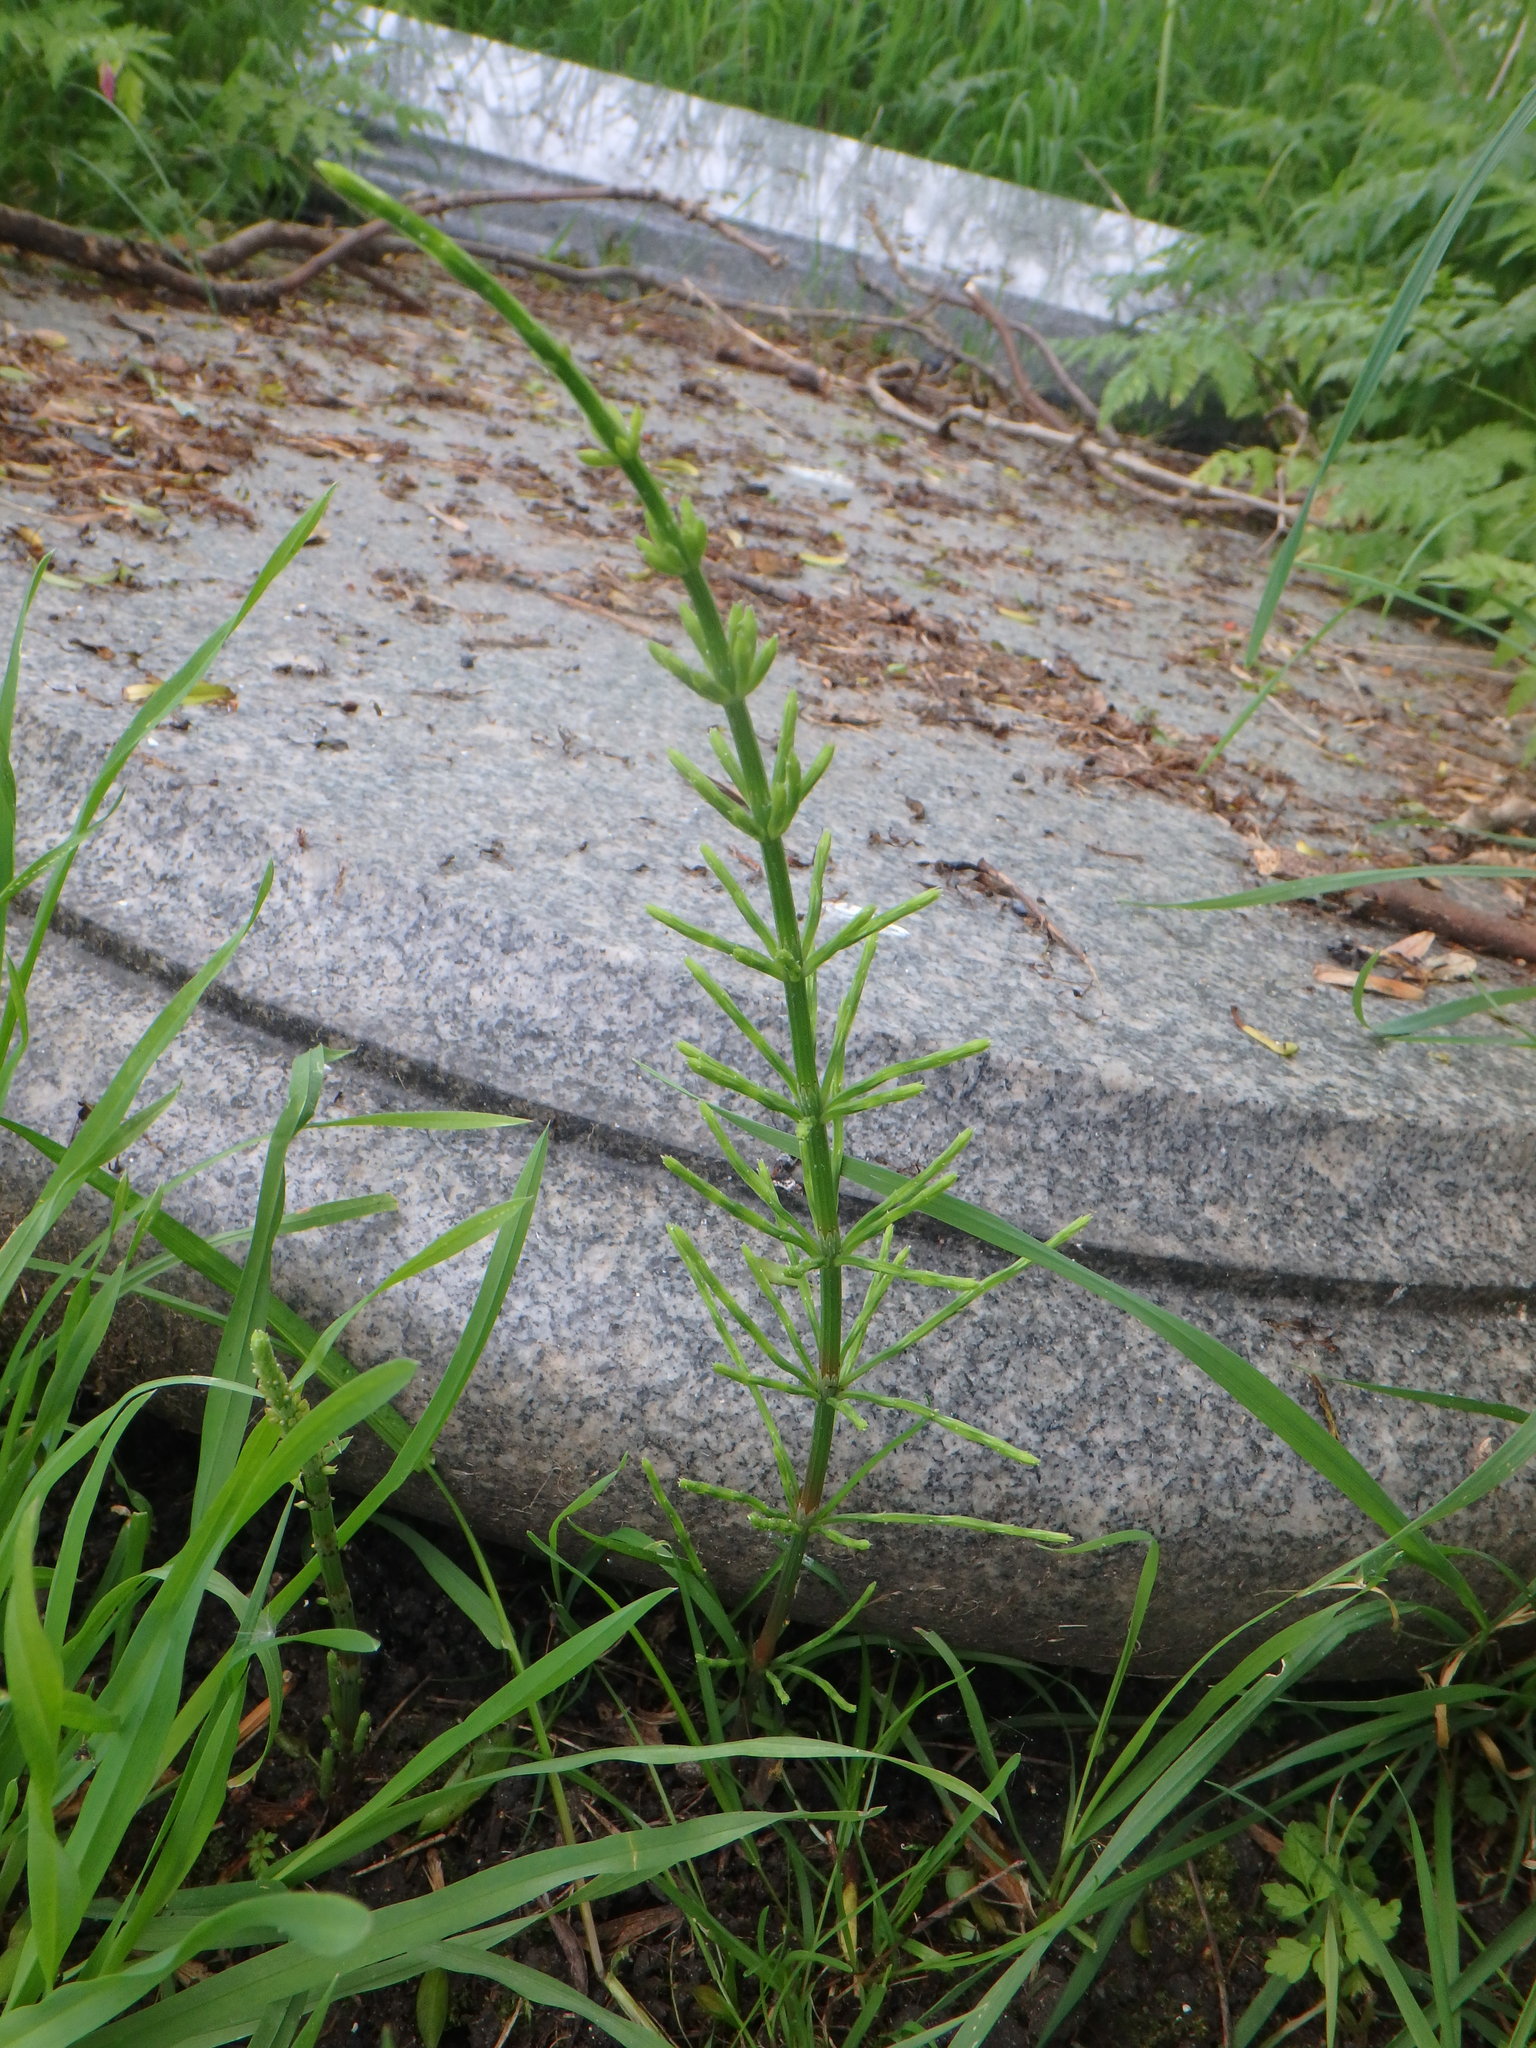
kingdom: Plantae
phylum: Tracheophyta
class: Polypodiopsida
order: Equisetales
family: Equisetaceae
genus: Equisetum
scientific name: Equisetum arvense
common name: Field horsetail
